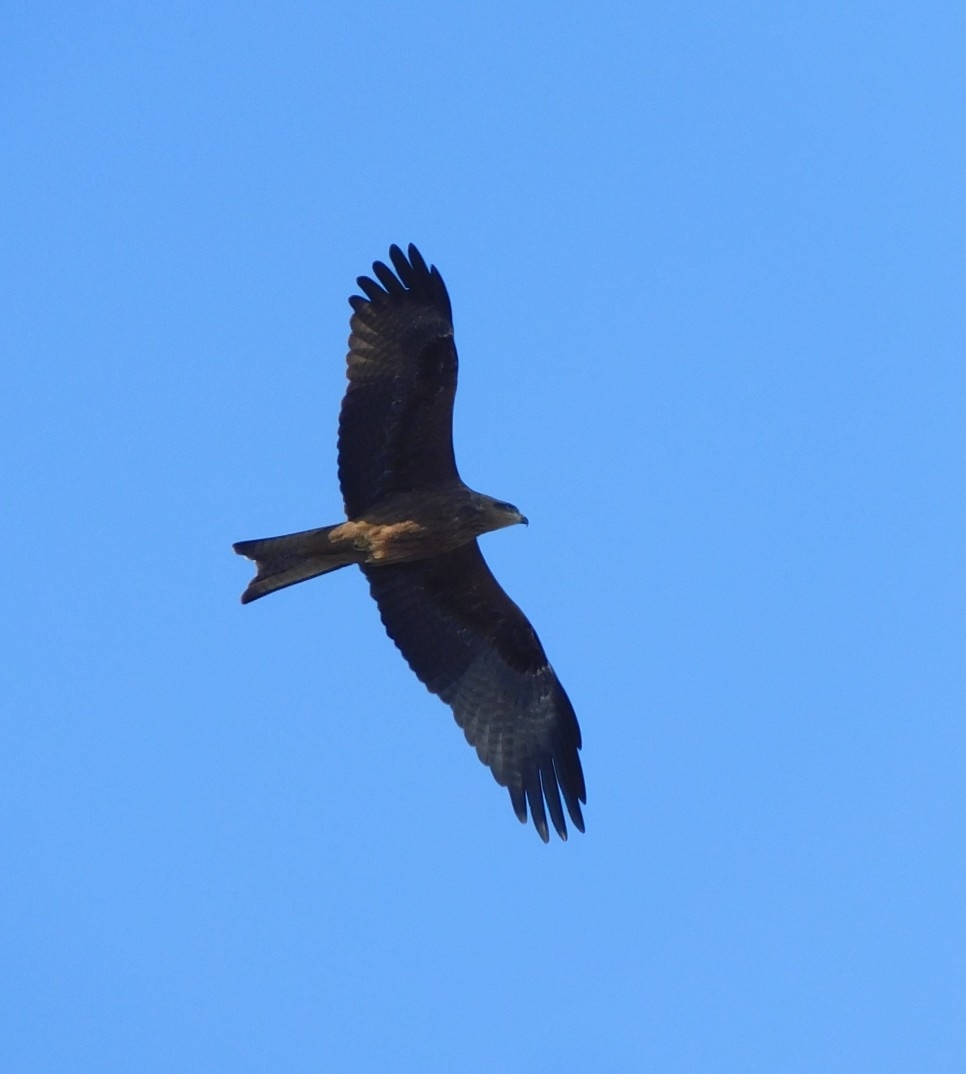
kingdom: Animalia
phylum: Chordata
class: Aves
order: Accipitriformes
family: Accipitridae
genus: Milvus
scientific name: Milvus migrans
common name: Black kite
